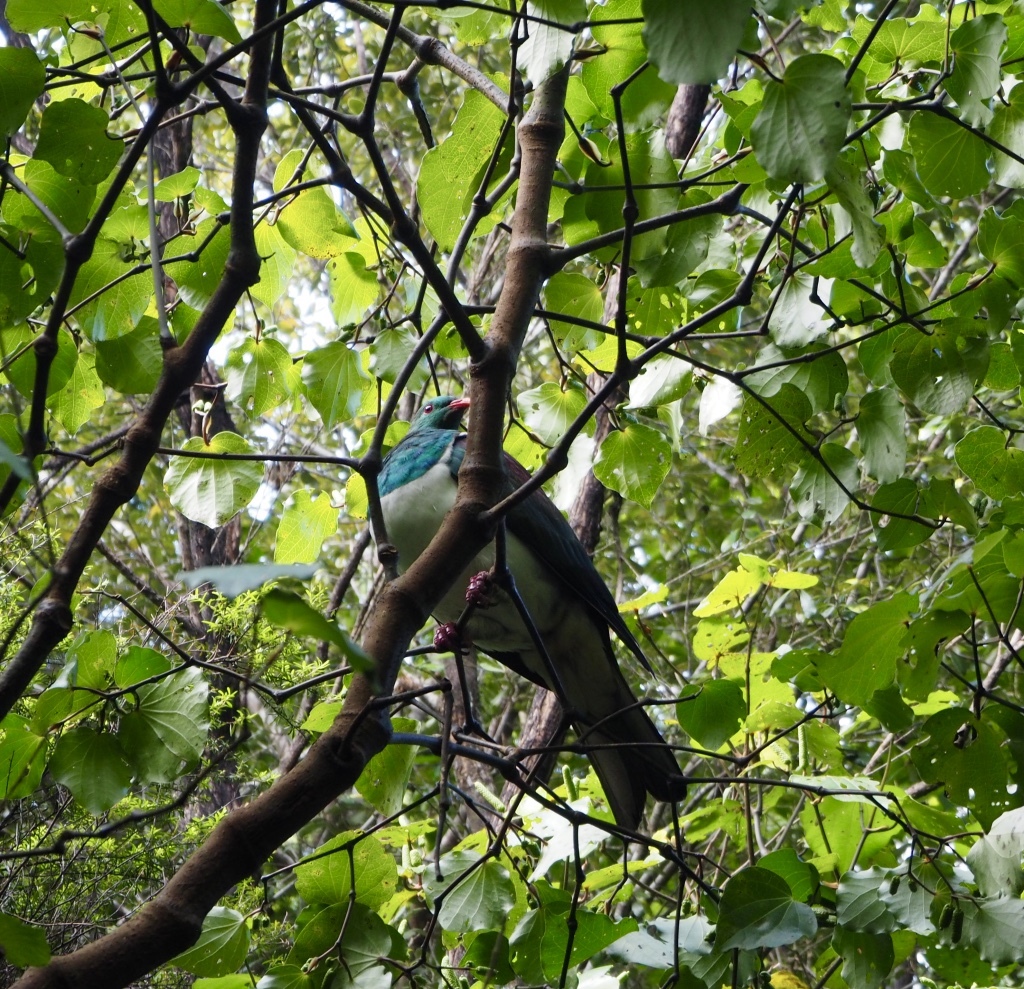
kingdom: Animalia
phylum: Chordata
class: Aves
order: Columbiformes
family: Columbidae
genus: Hemiphaga
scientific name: Hemiphaga novaeseelandiae
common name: New zealand pigeon
